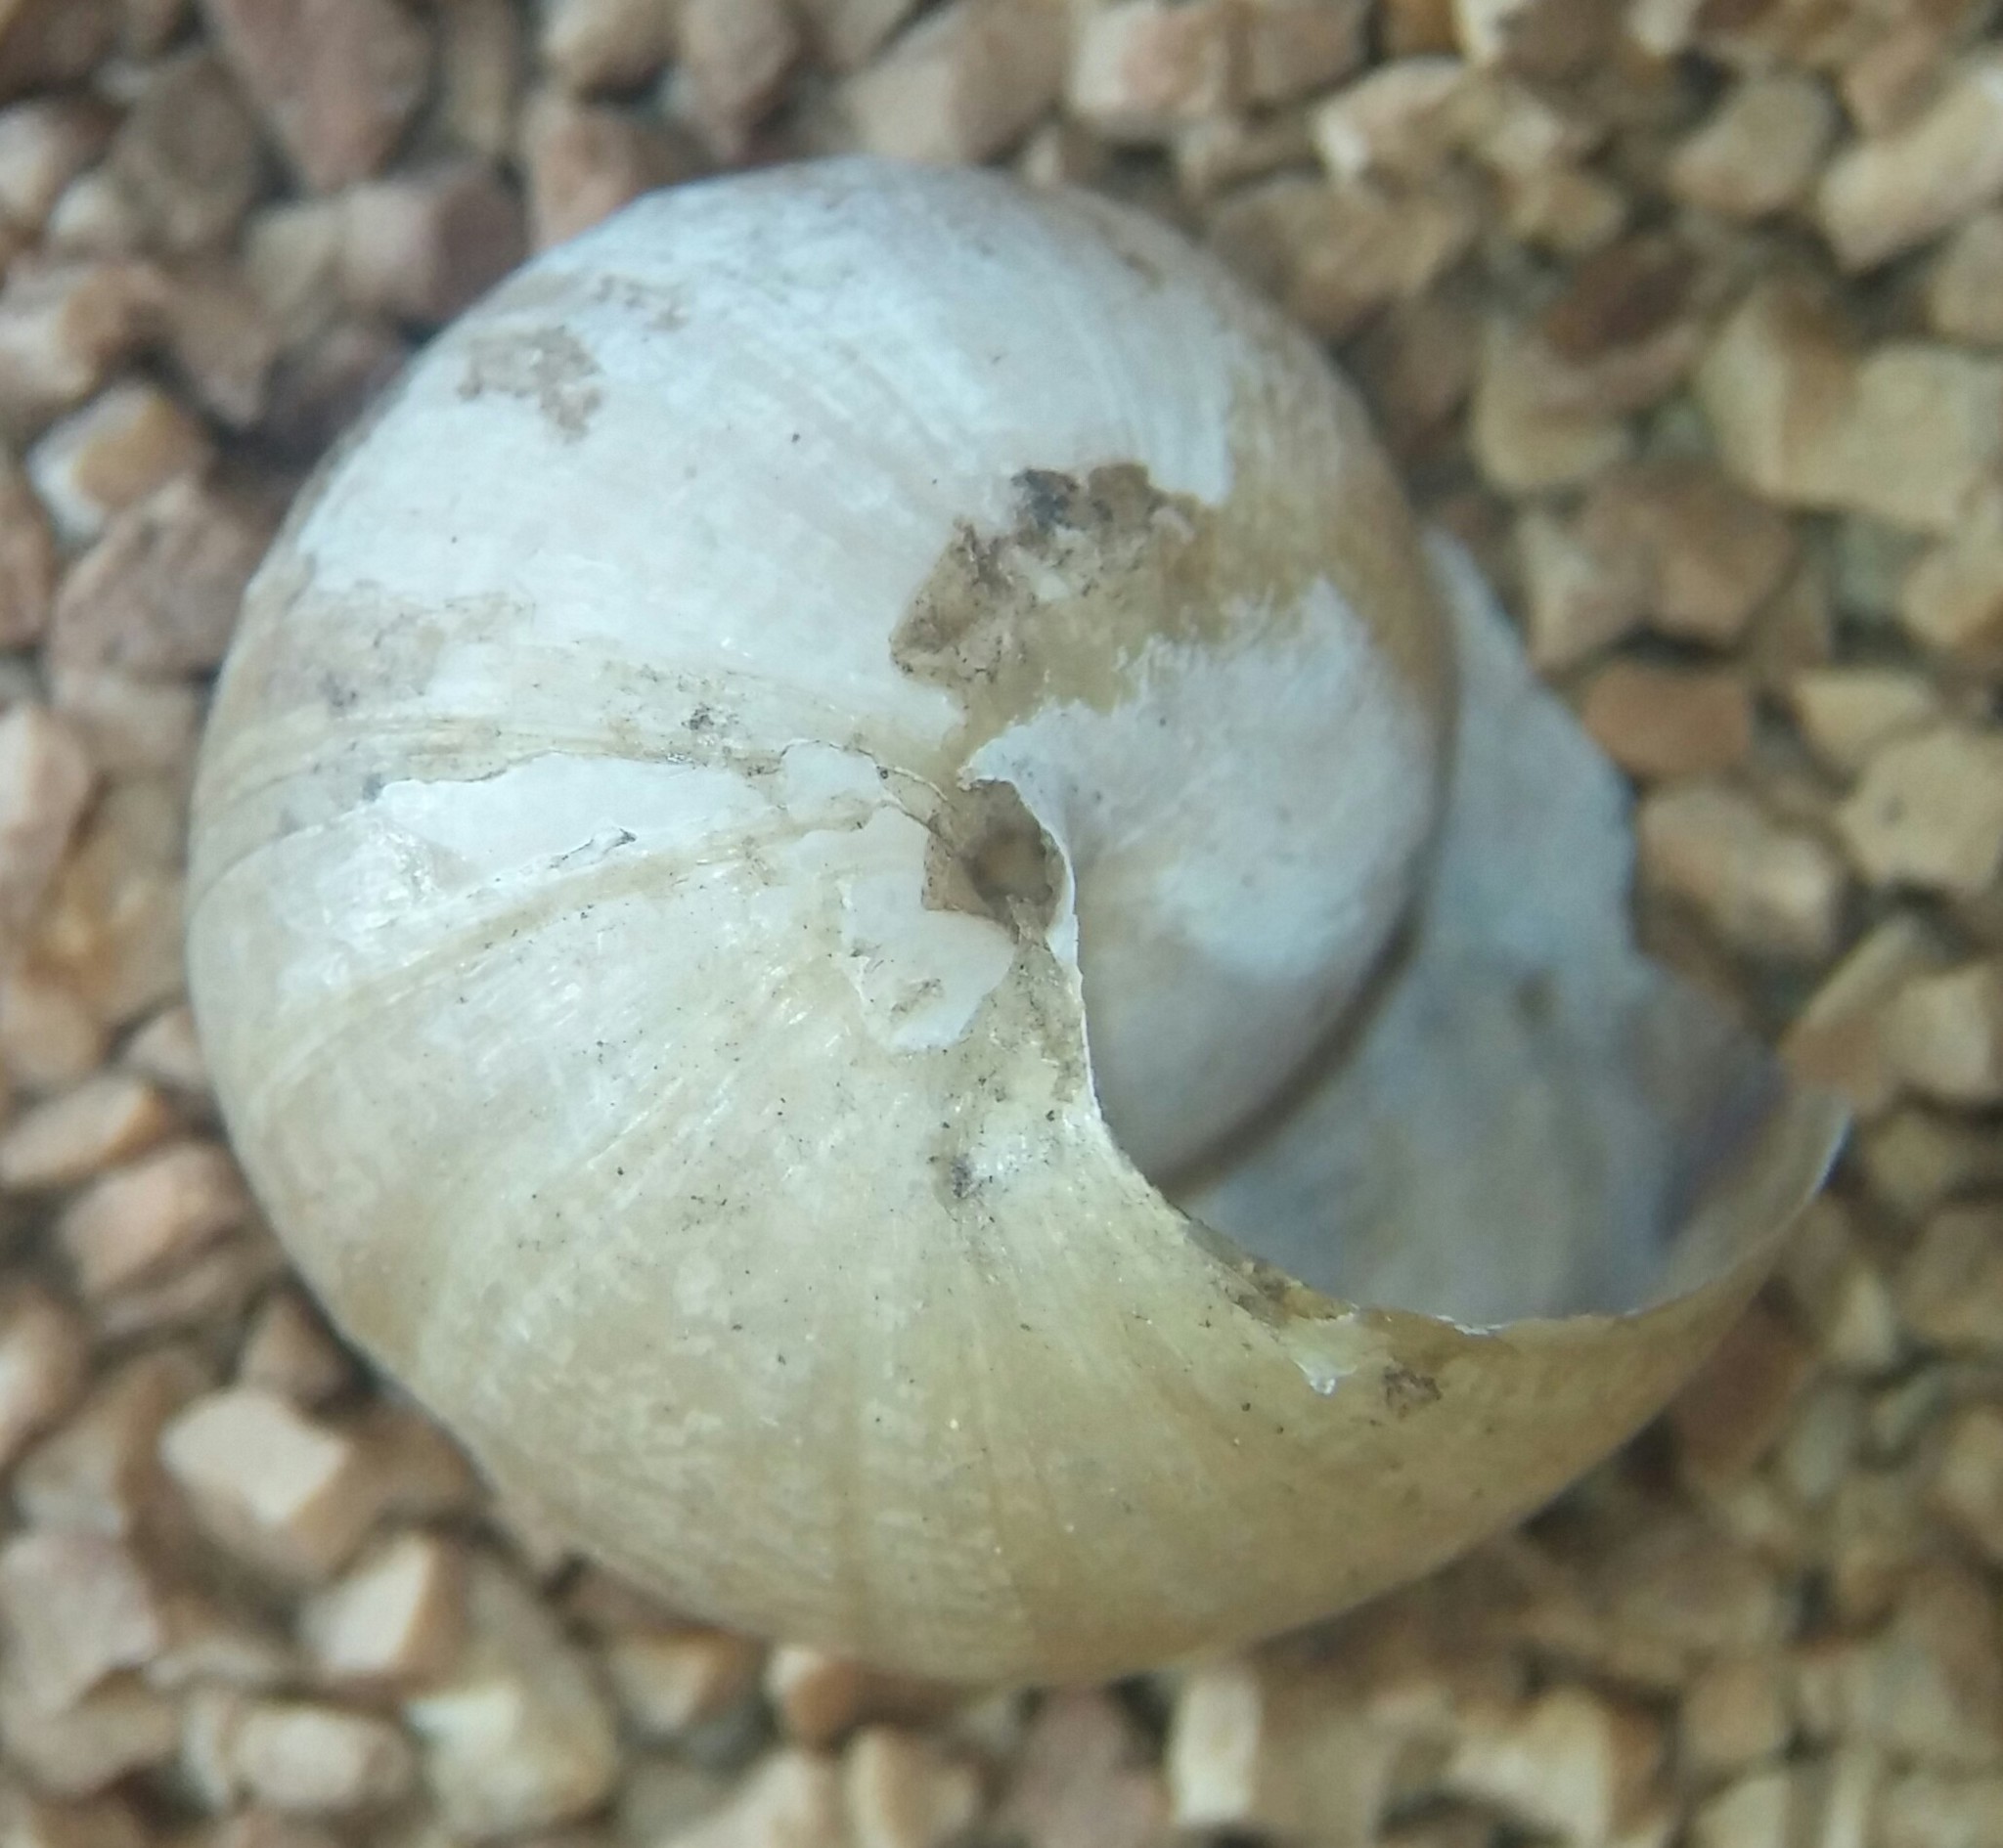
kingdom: Animalia
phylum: Mollusca
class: Gastropoda
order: Stylommatophora
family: Xanthonychidae
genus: Xerarionta
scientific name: Xerarionta stearnsiana
